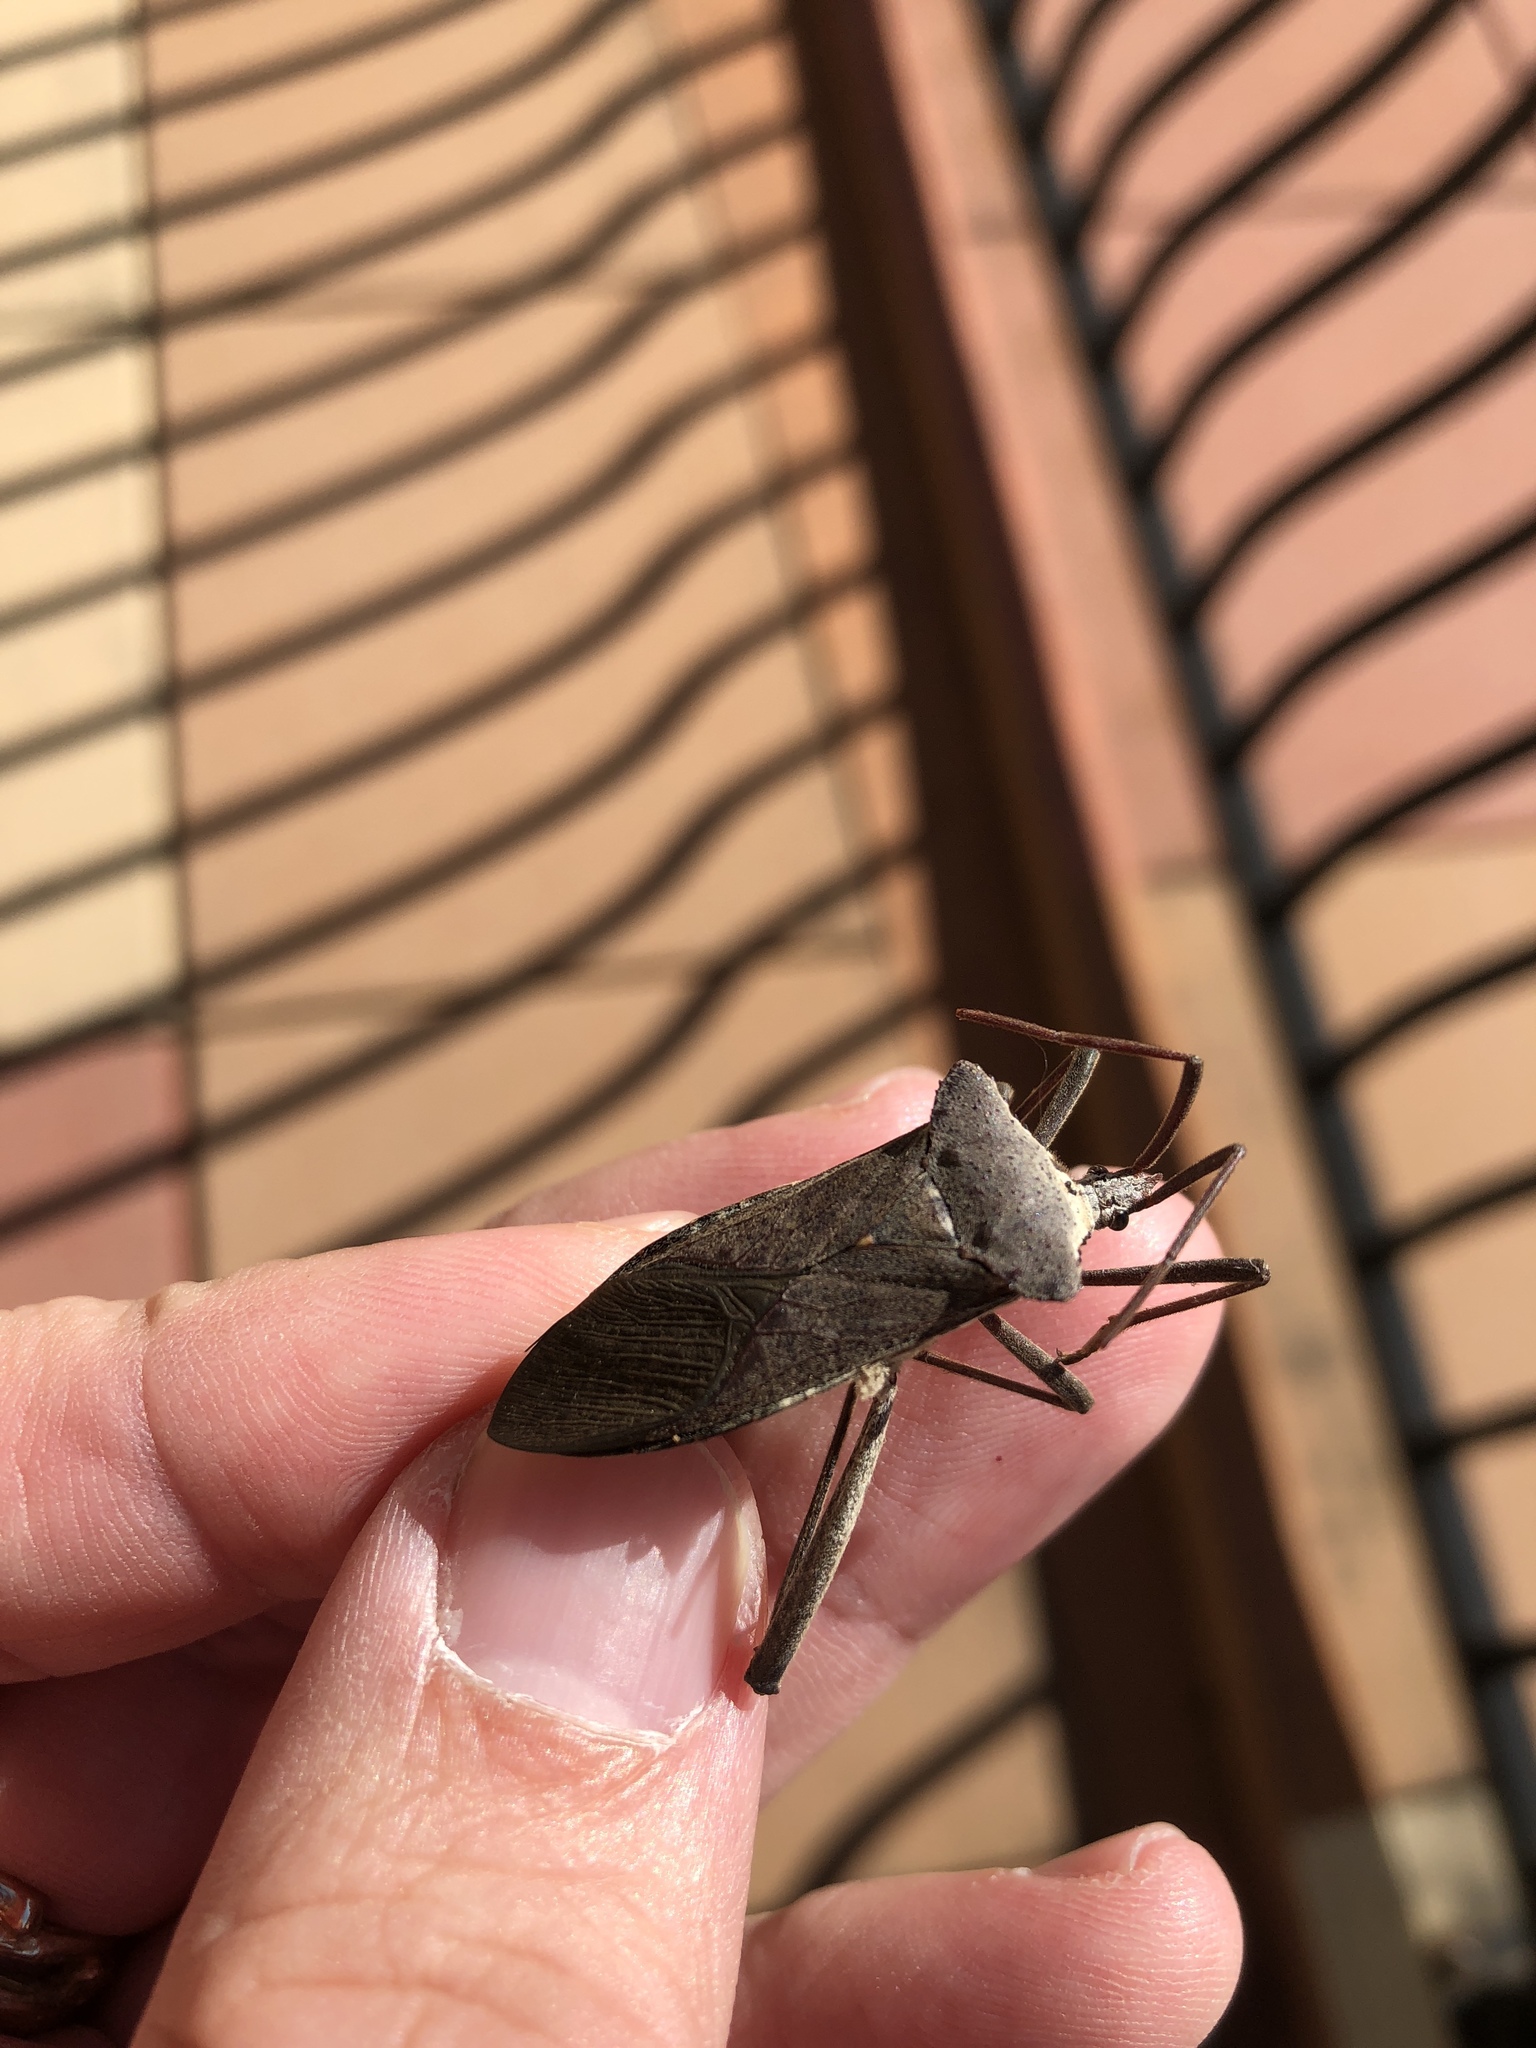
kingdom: Animalia
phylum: Arthropoda
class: Insecta
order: Hemiptera
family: Coreidae
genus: Acanthocephala
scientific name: Acanthocephala declivis
